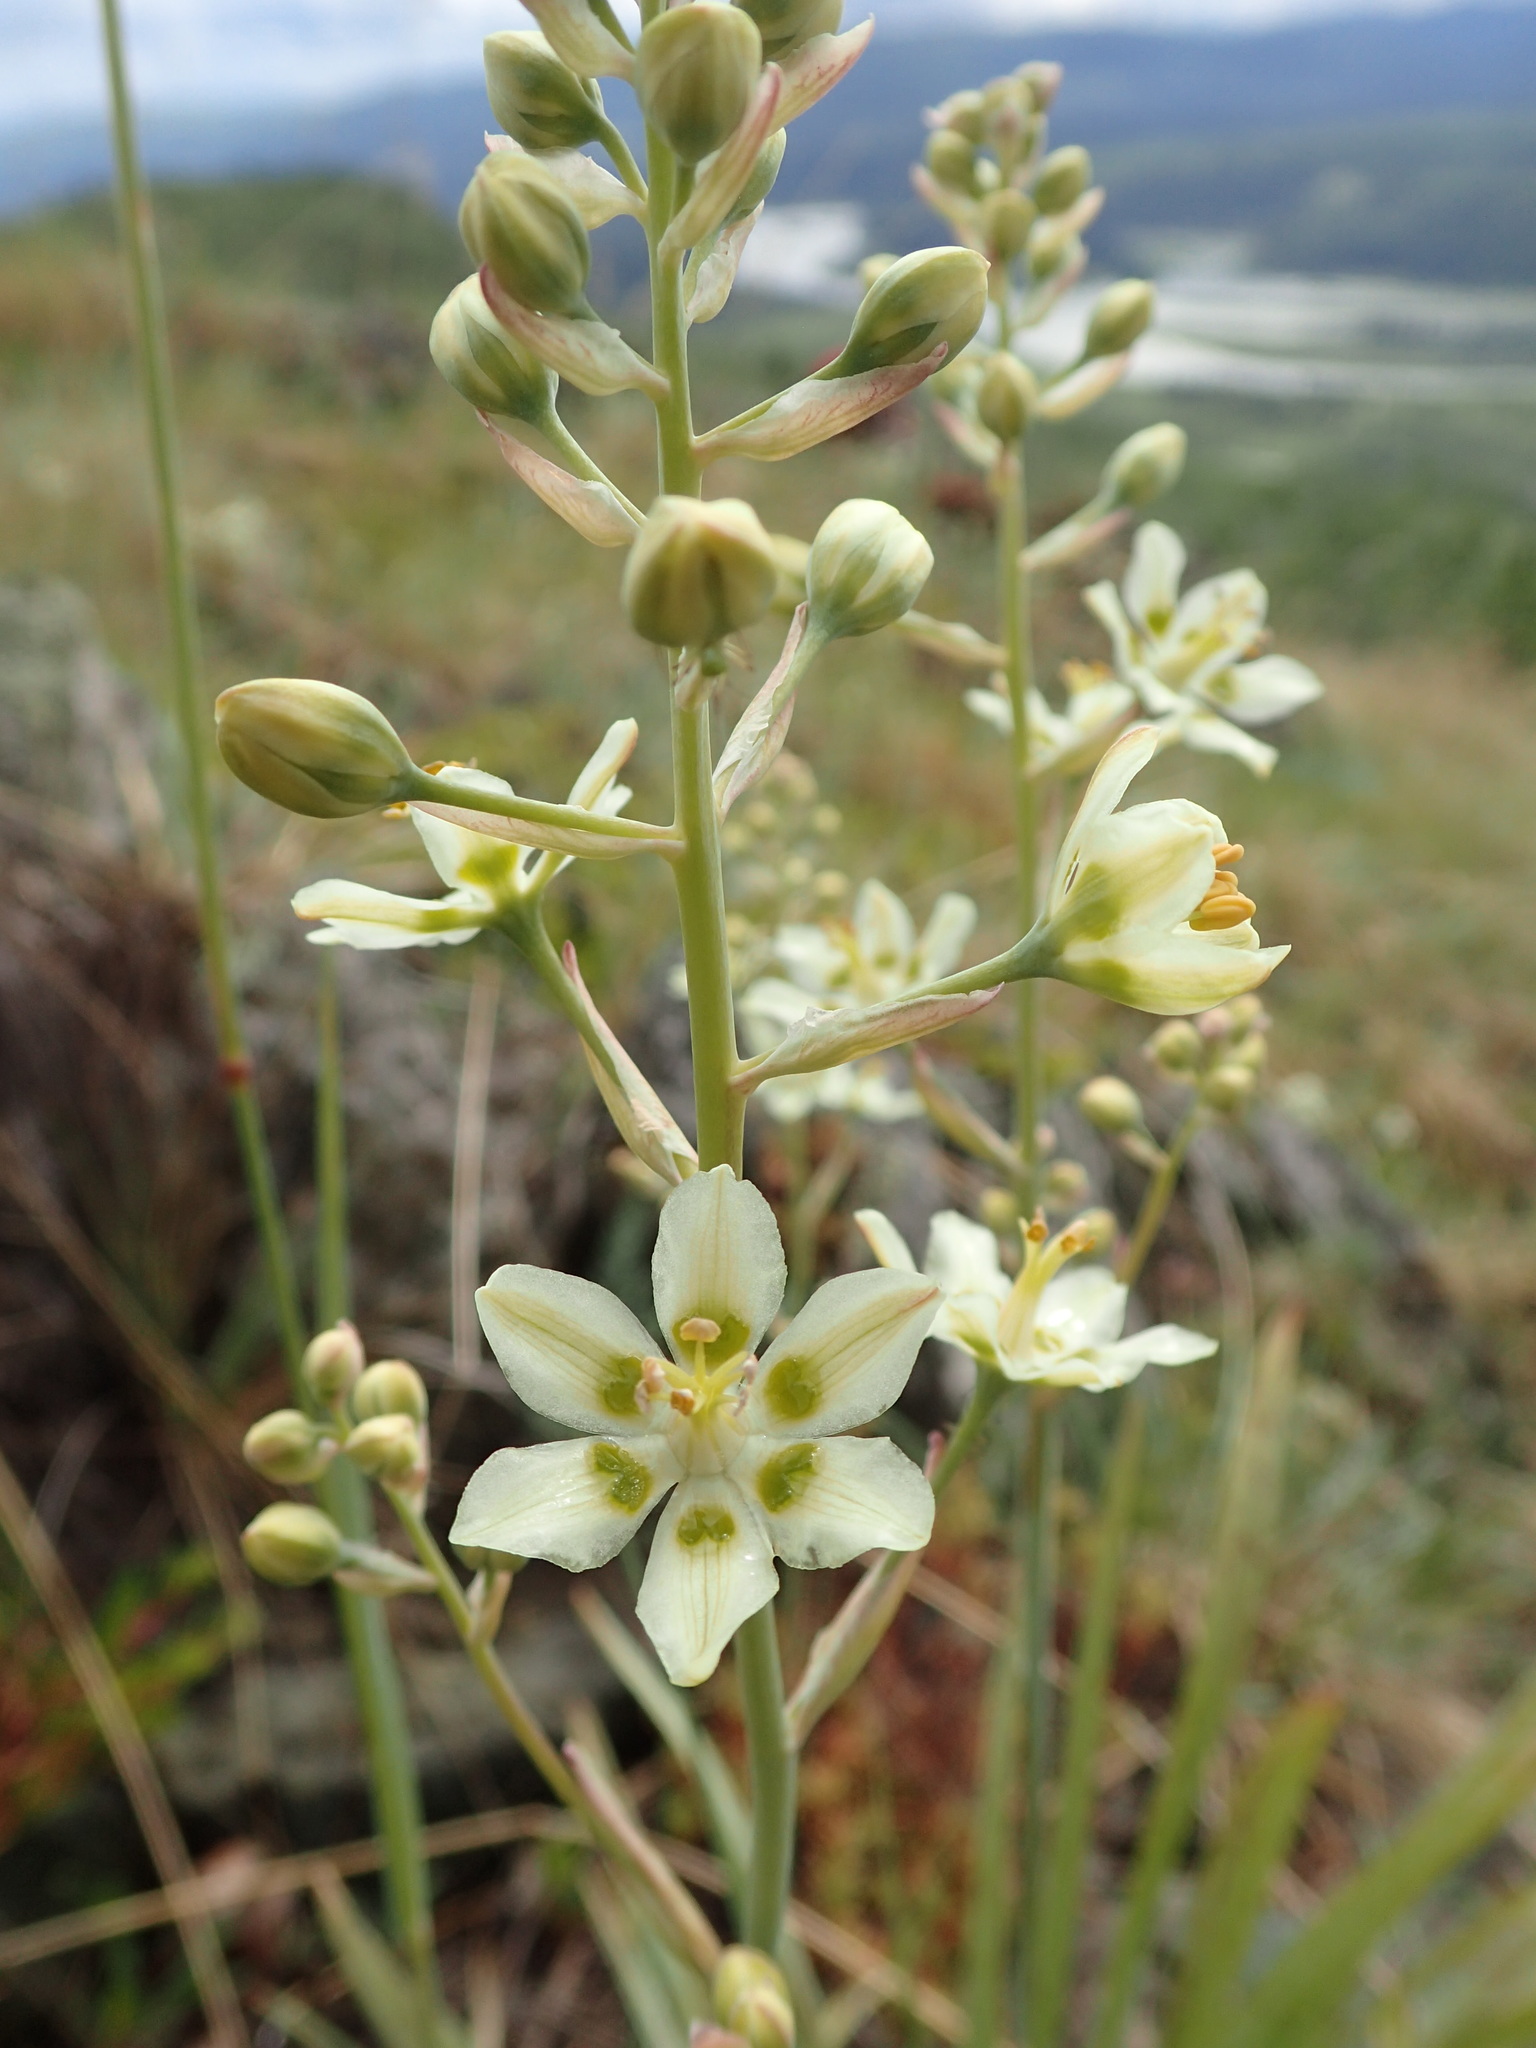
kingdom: Plantae
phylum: Tracheophyta
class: Liliopsida
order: Liliales
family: Melanthiaceae
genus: Anticlea
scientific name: Anticlea elegans
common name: Mountain death camas
